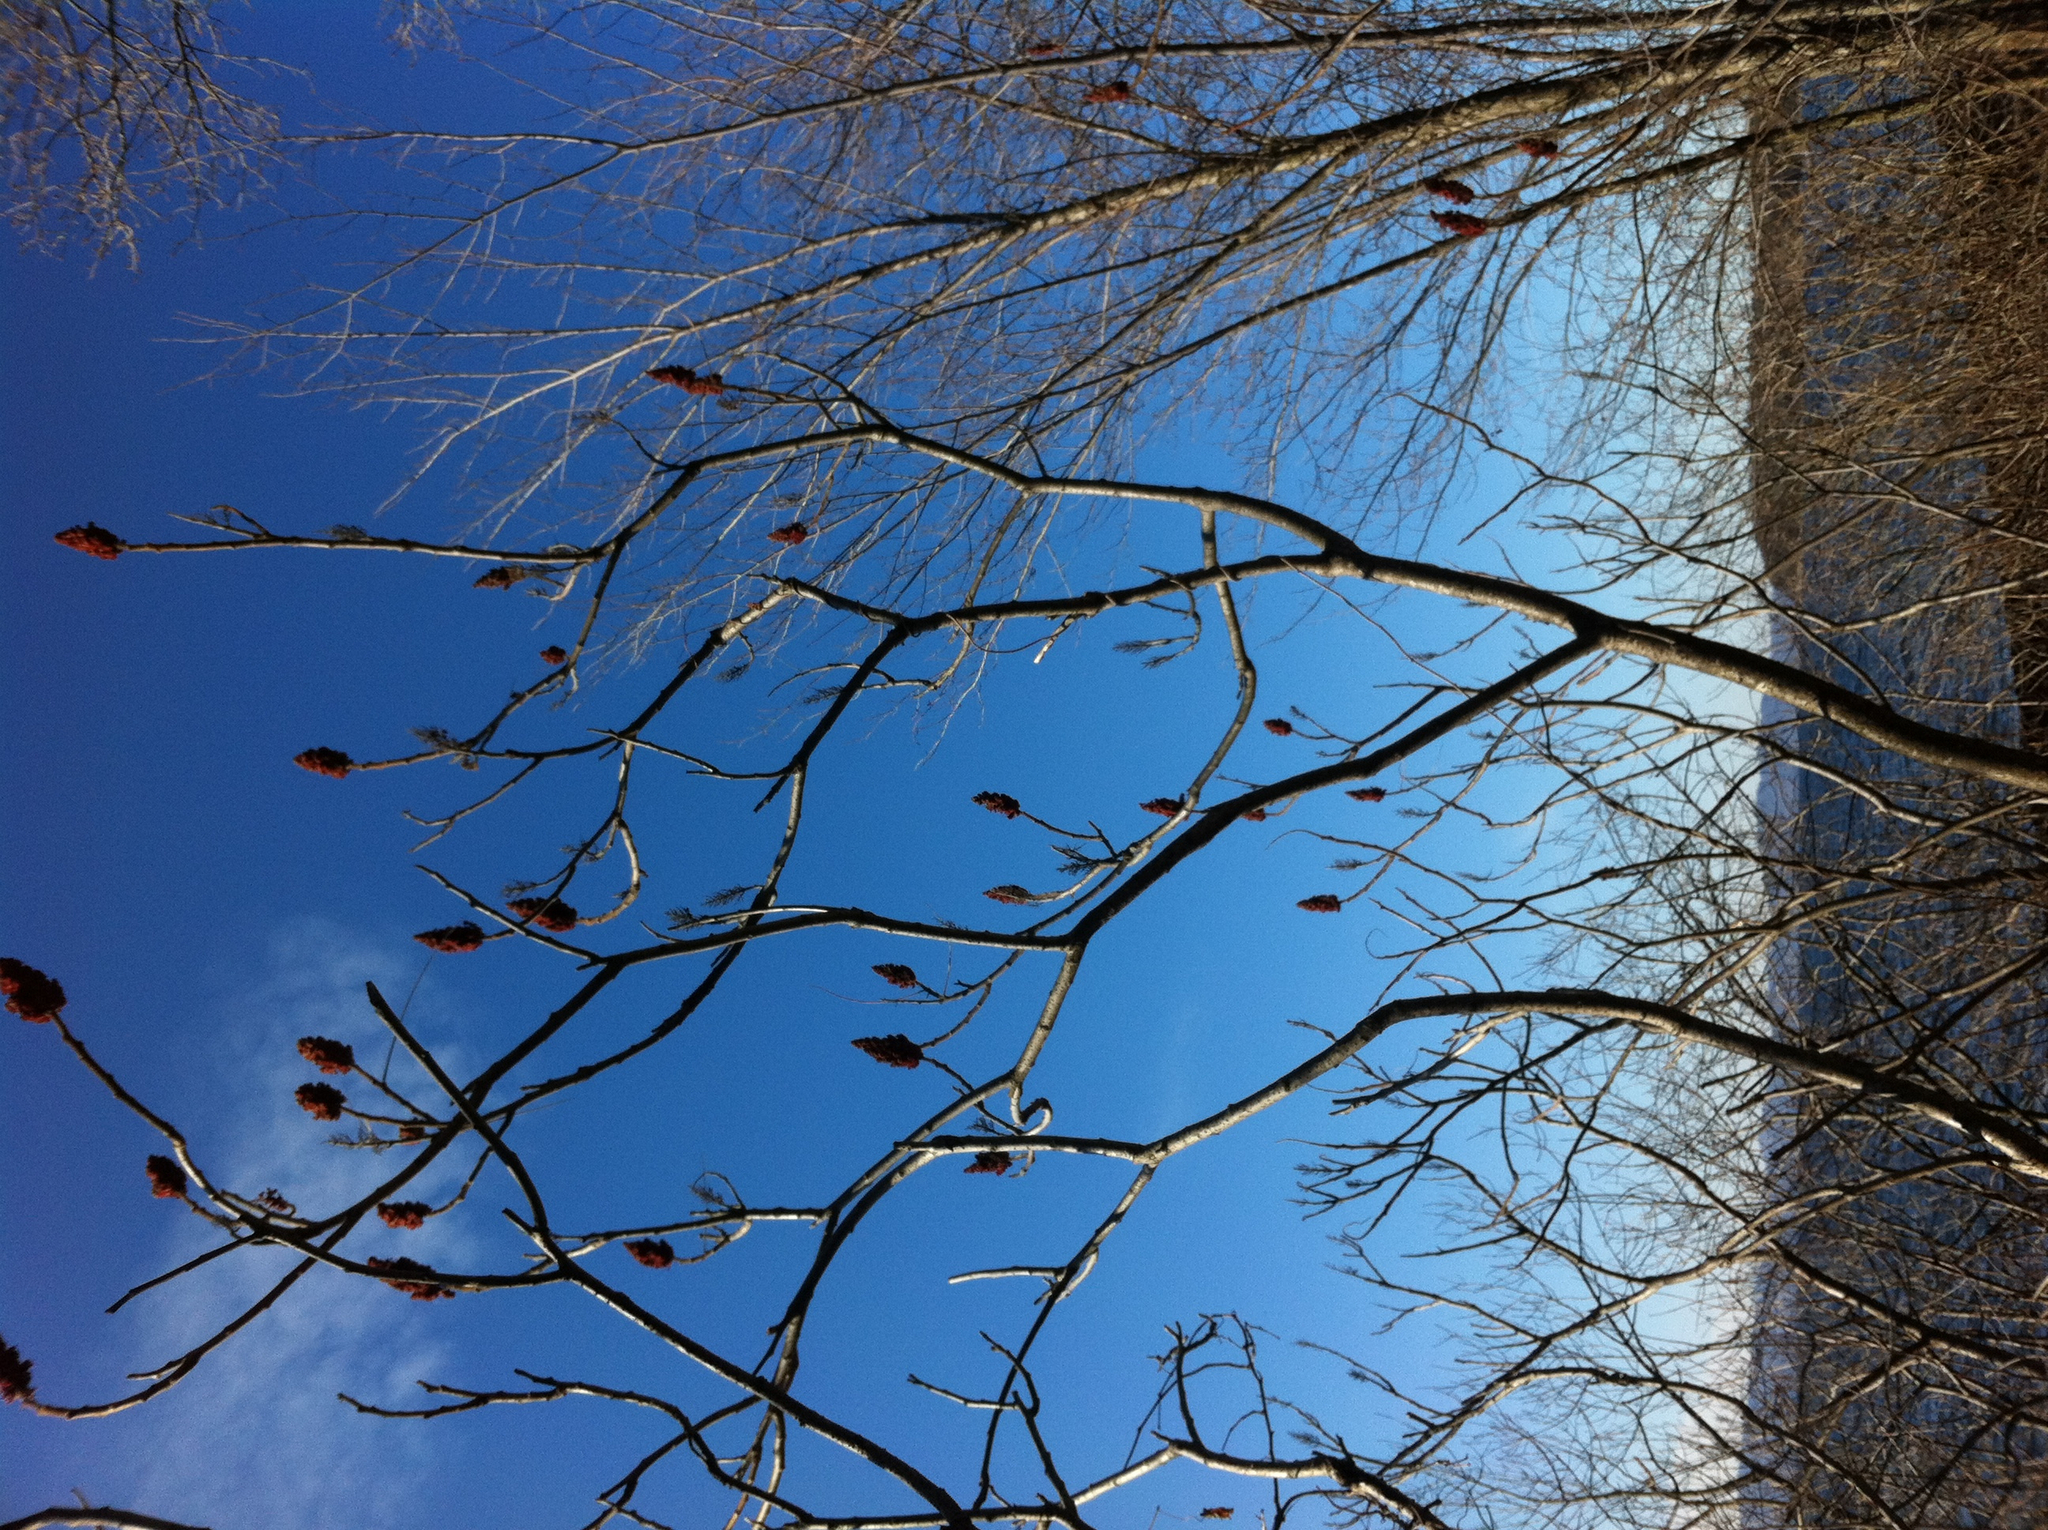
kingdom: Plantae
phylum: Tracheophyta
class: Magnoliopsida
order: Sapindales
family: Anacardiaceae
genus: Rhus
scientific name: Rhus typhina
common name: Staghorn sumac
